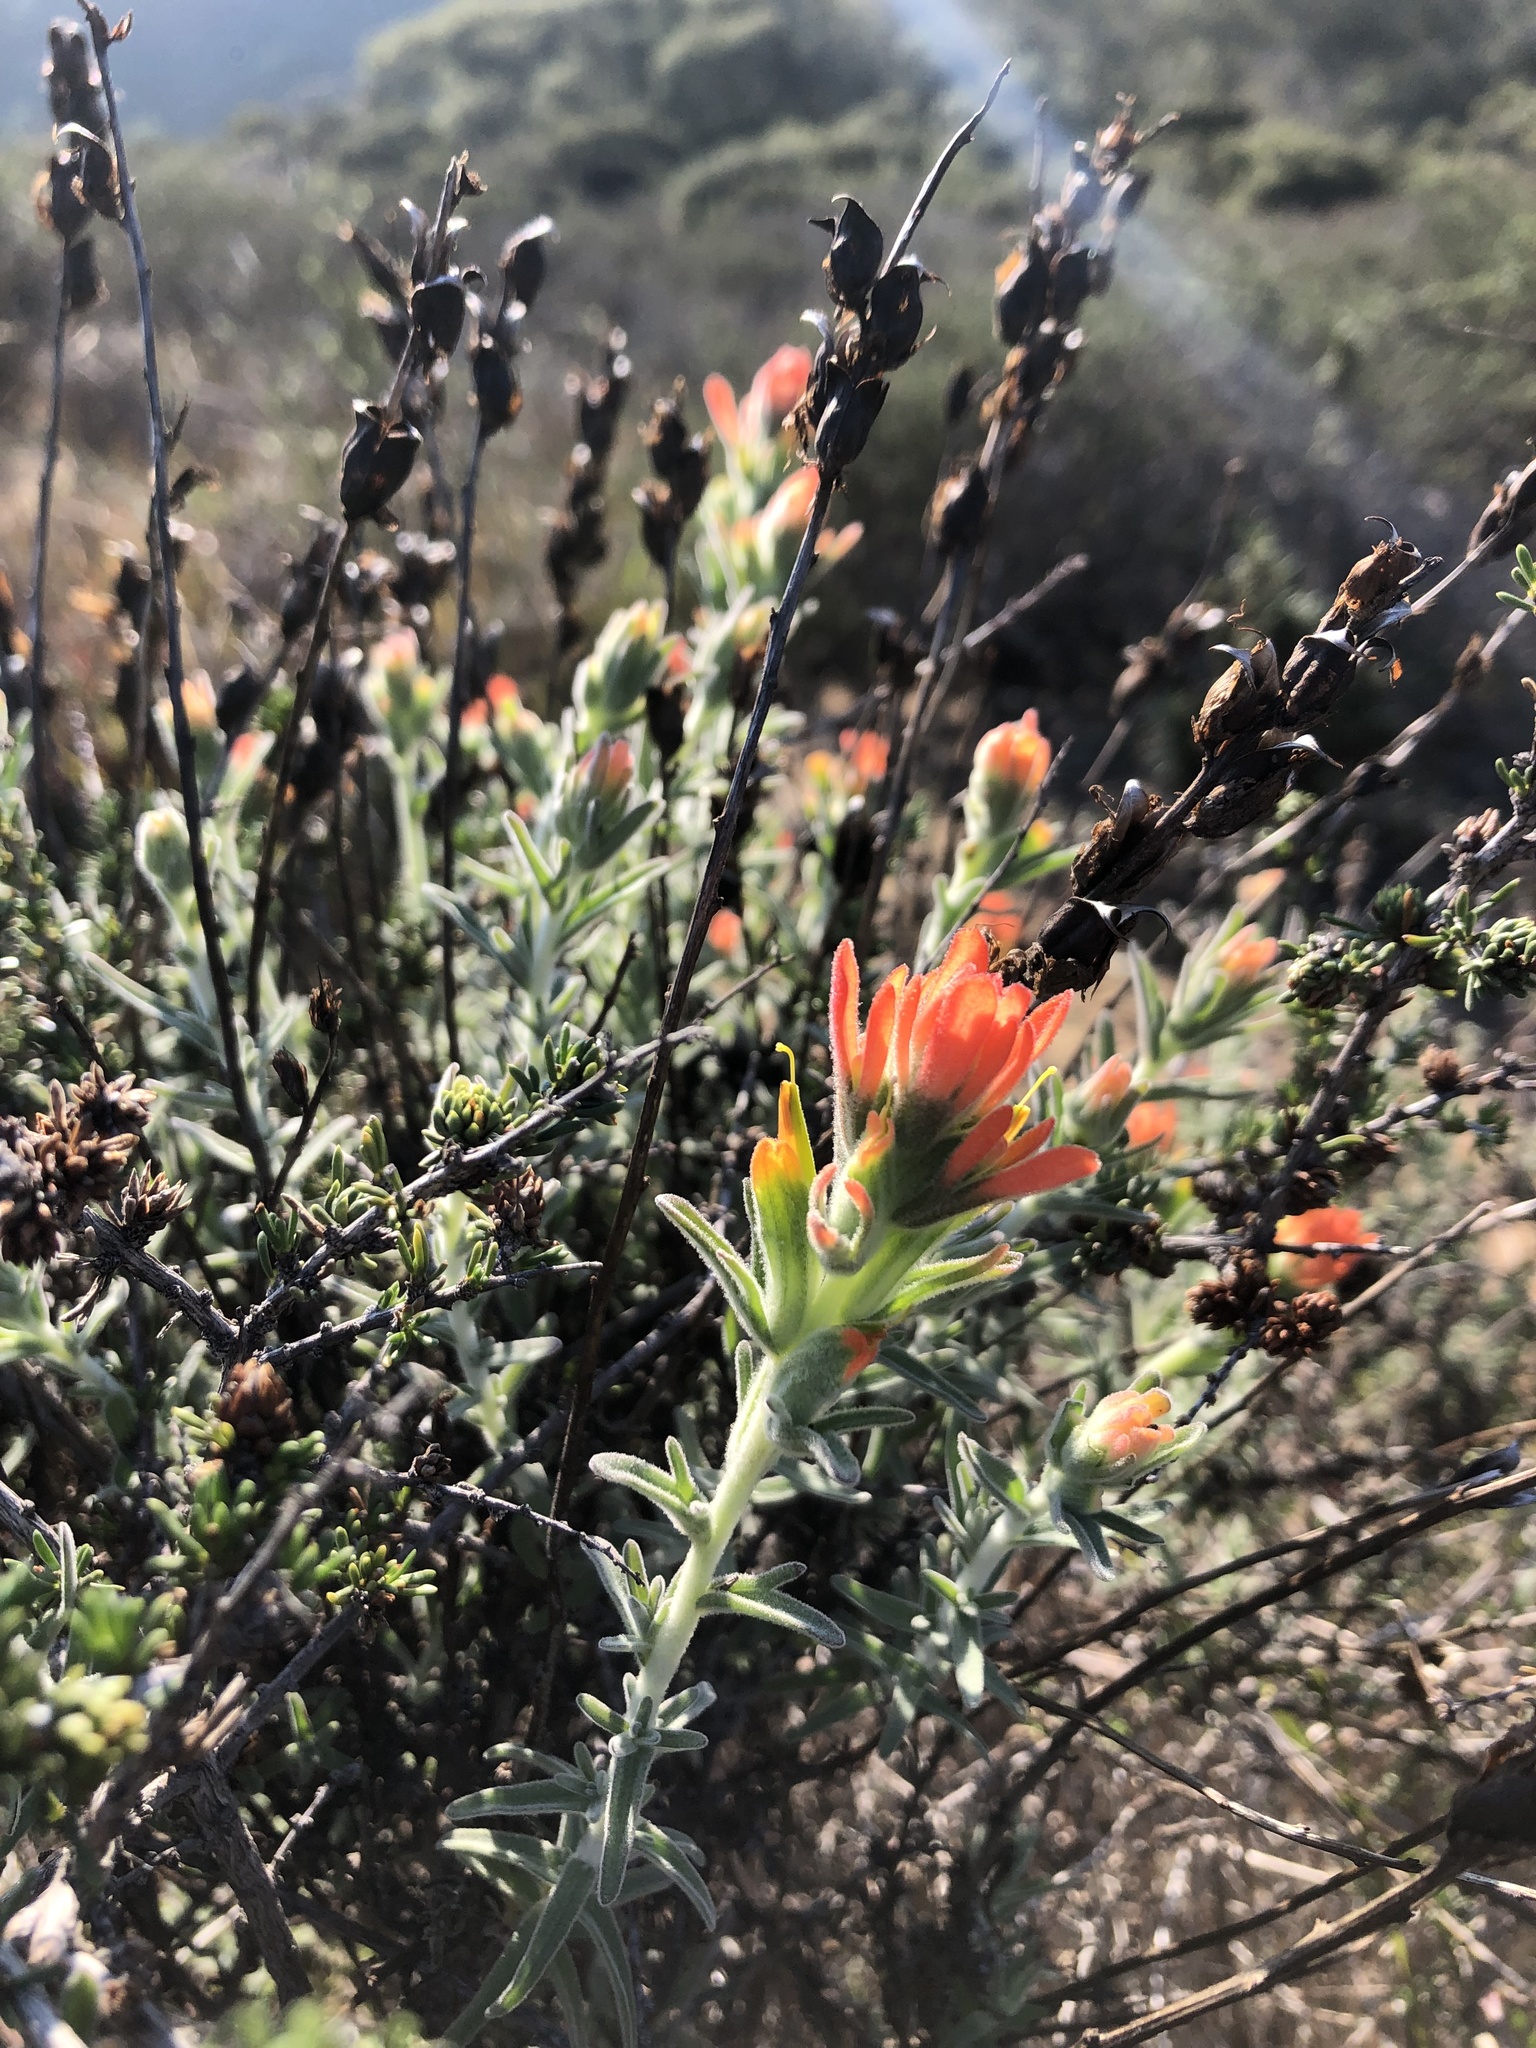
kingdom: Plantae
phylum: Tracheophyta
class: Magnoliopsida
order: Lamiales
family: Orobanchaceae
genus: Castilleja
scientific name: Castilleja foliolosa
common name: Woolly indian paintbrush
